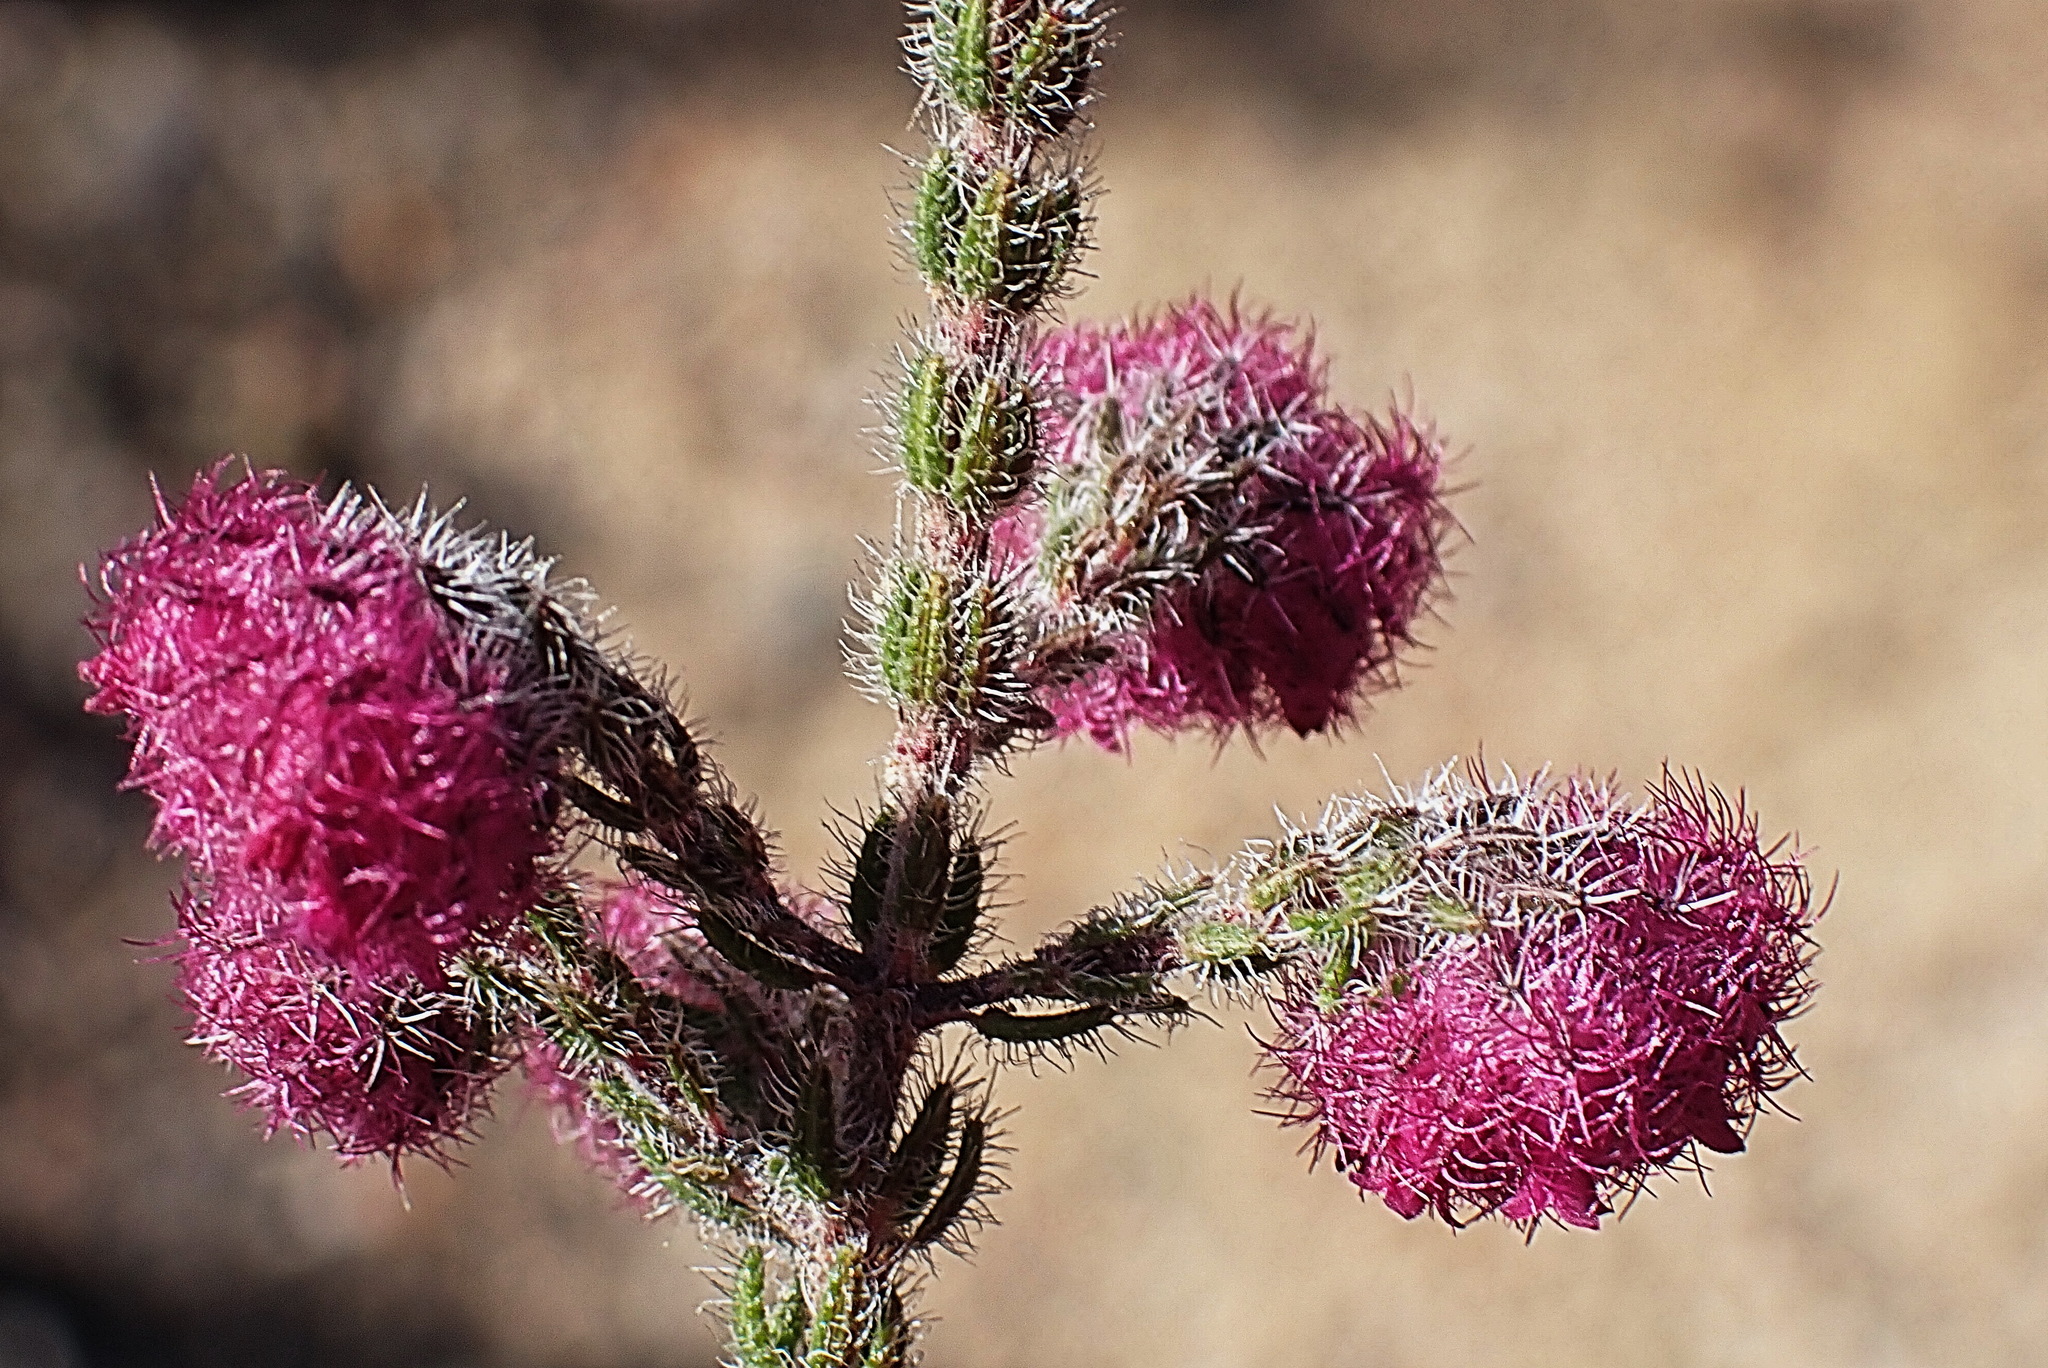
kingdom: Plantae
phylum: Tracheophyta
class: Magnoliopsida
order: Ericales
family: Ericaceae
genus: Erica
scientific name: Erica solandra
